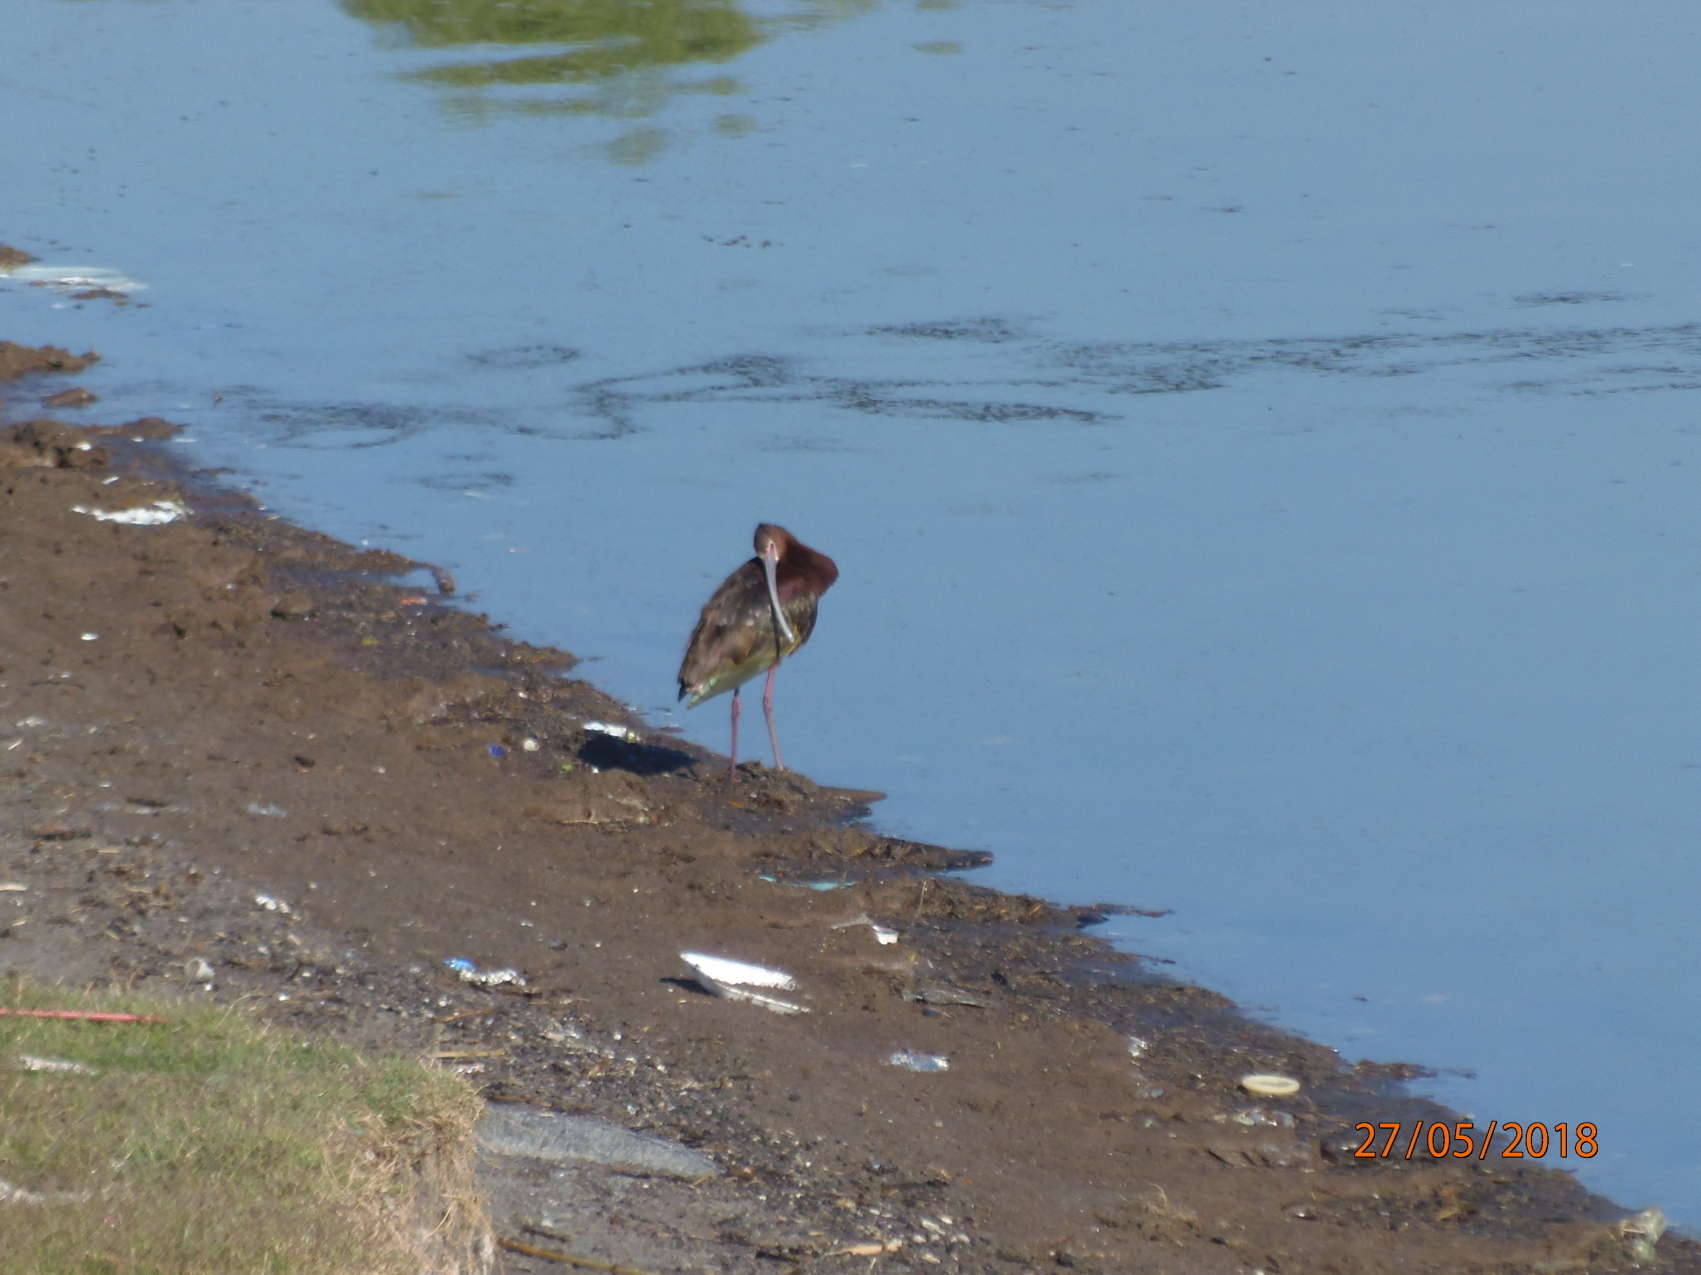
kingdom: Animalia
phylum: Chordata
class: Aves
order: Pelecaniformes
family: Threskiornithidae
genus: Plegadis
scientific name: Plegadis chihi
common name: White-faced ibis
